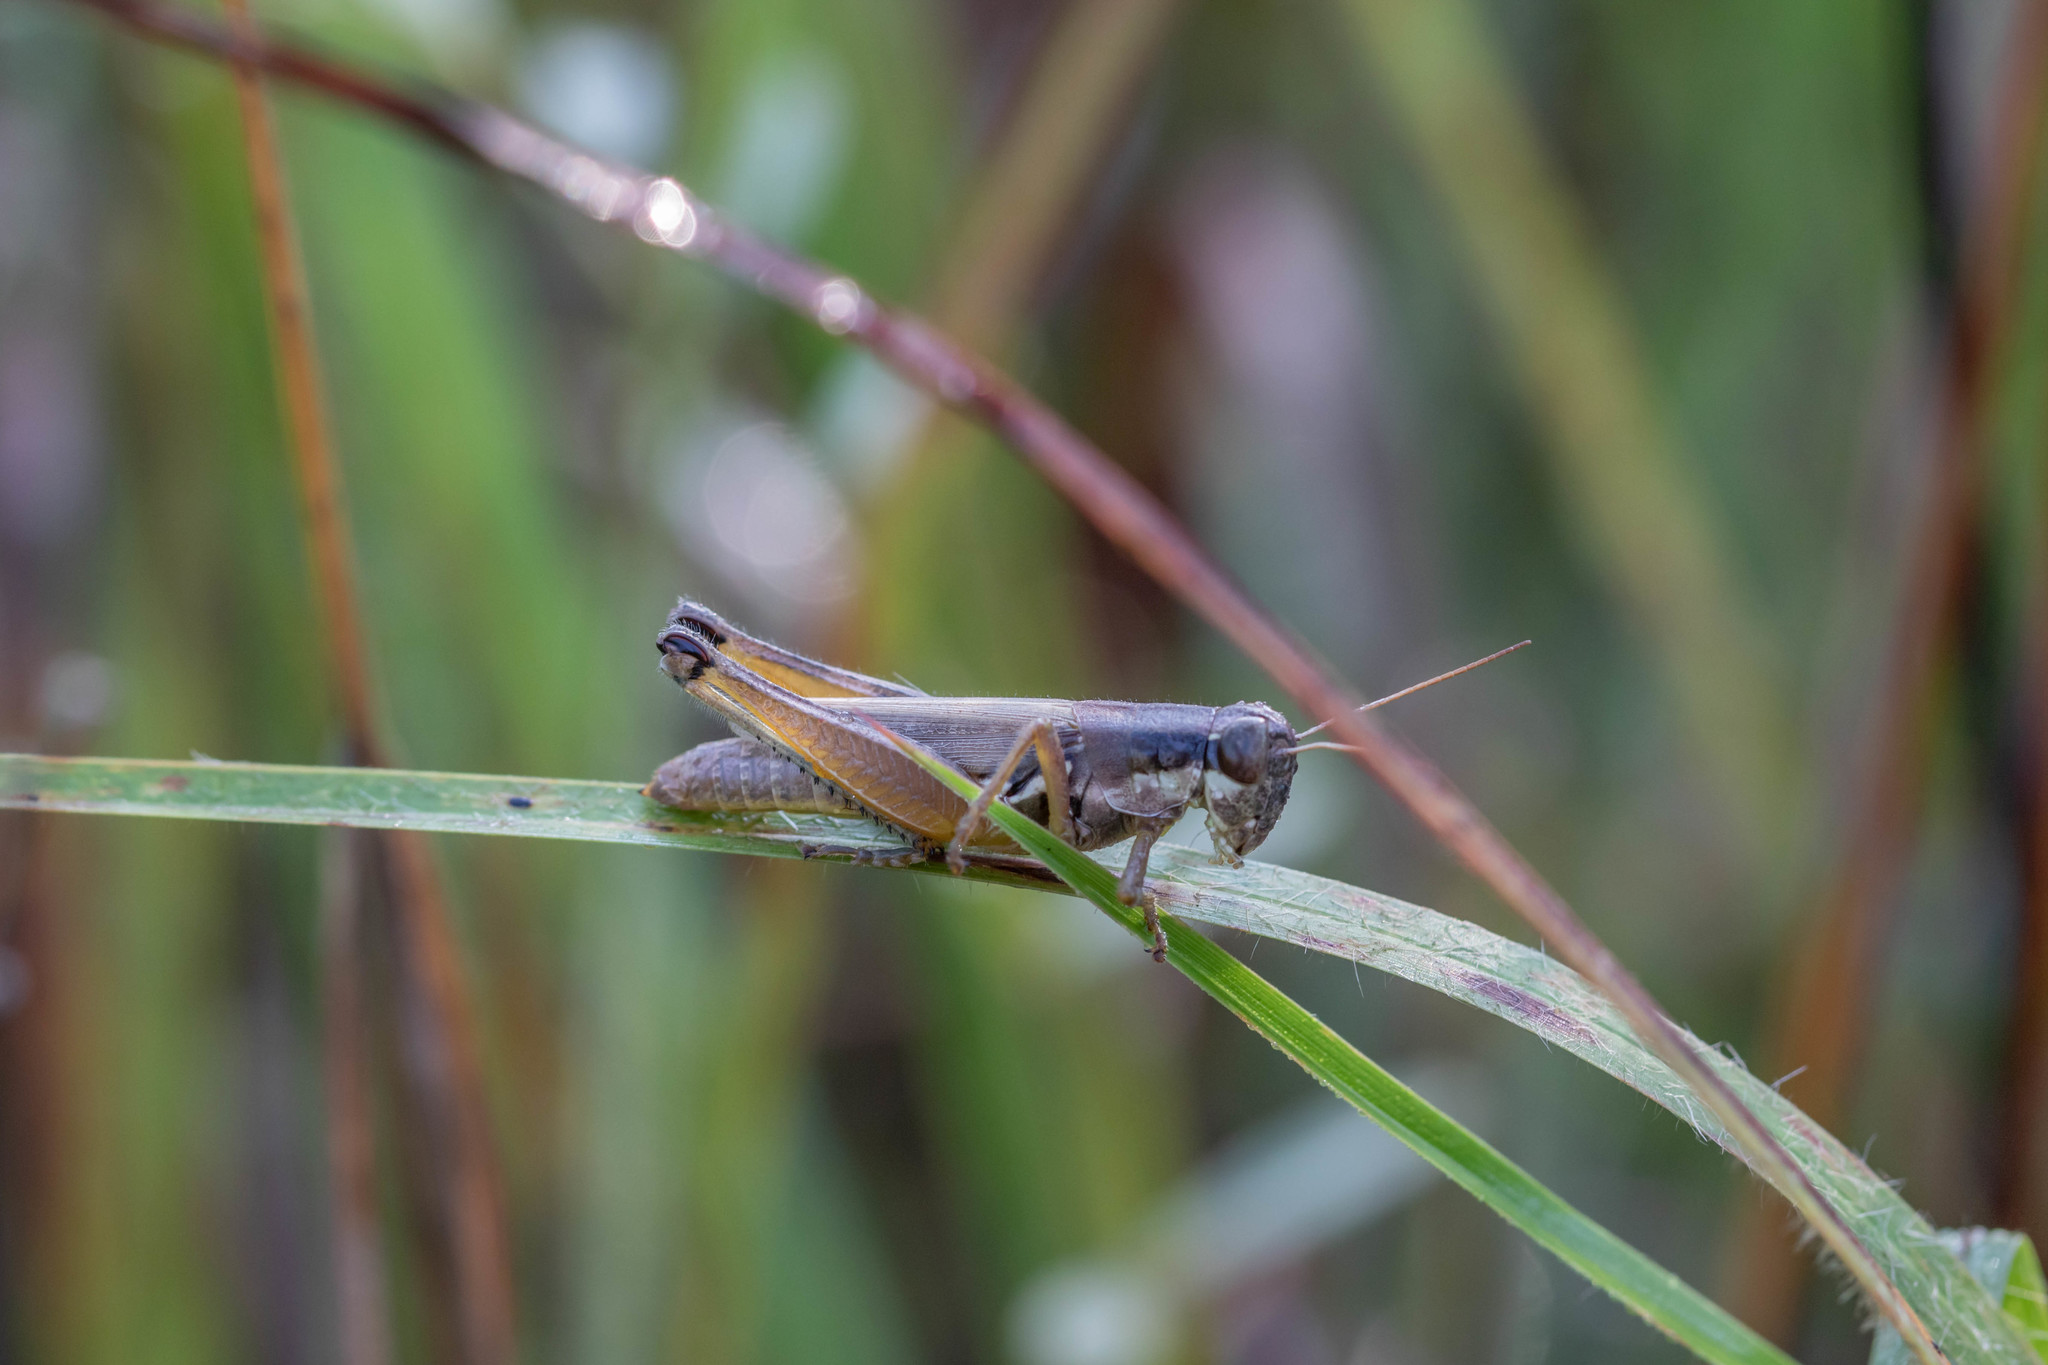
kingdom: Animalia
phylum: Arthropoda
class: Insecta
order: Orthoptera
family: Acrididae
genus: Paroxya
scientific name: Paroxya atlantica
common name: Atlantic grasshopper
